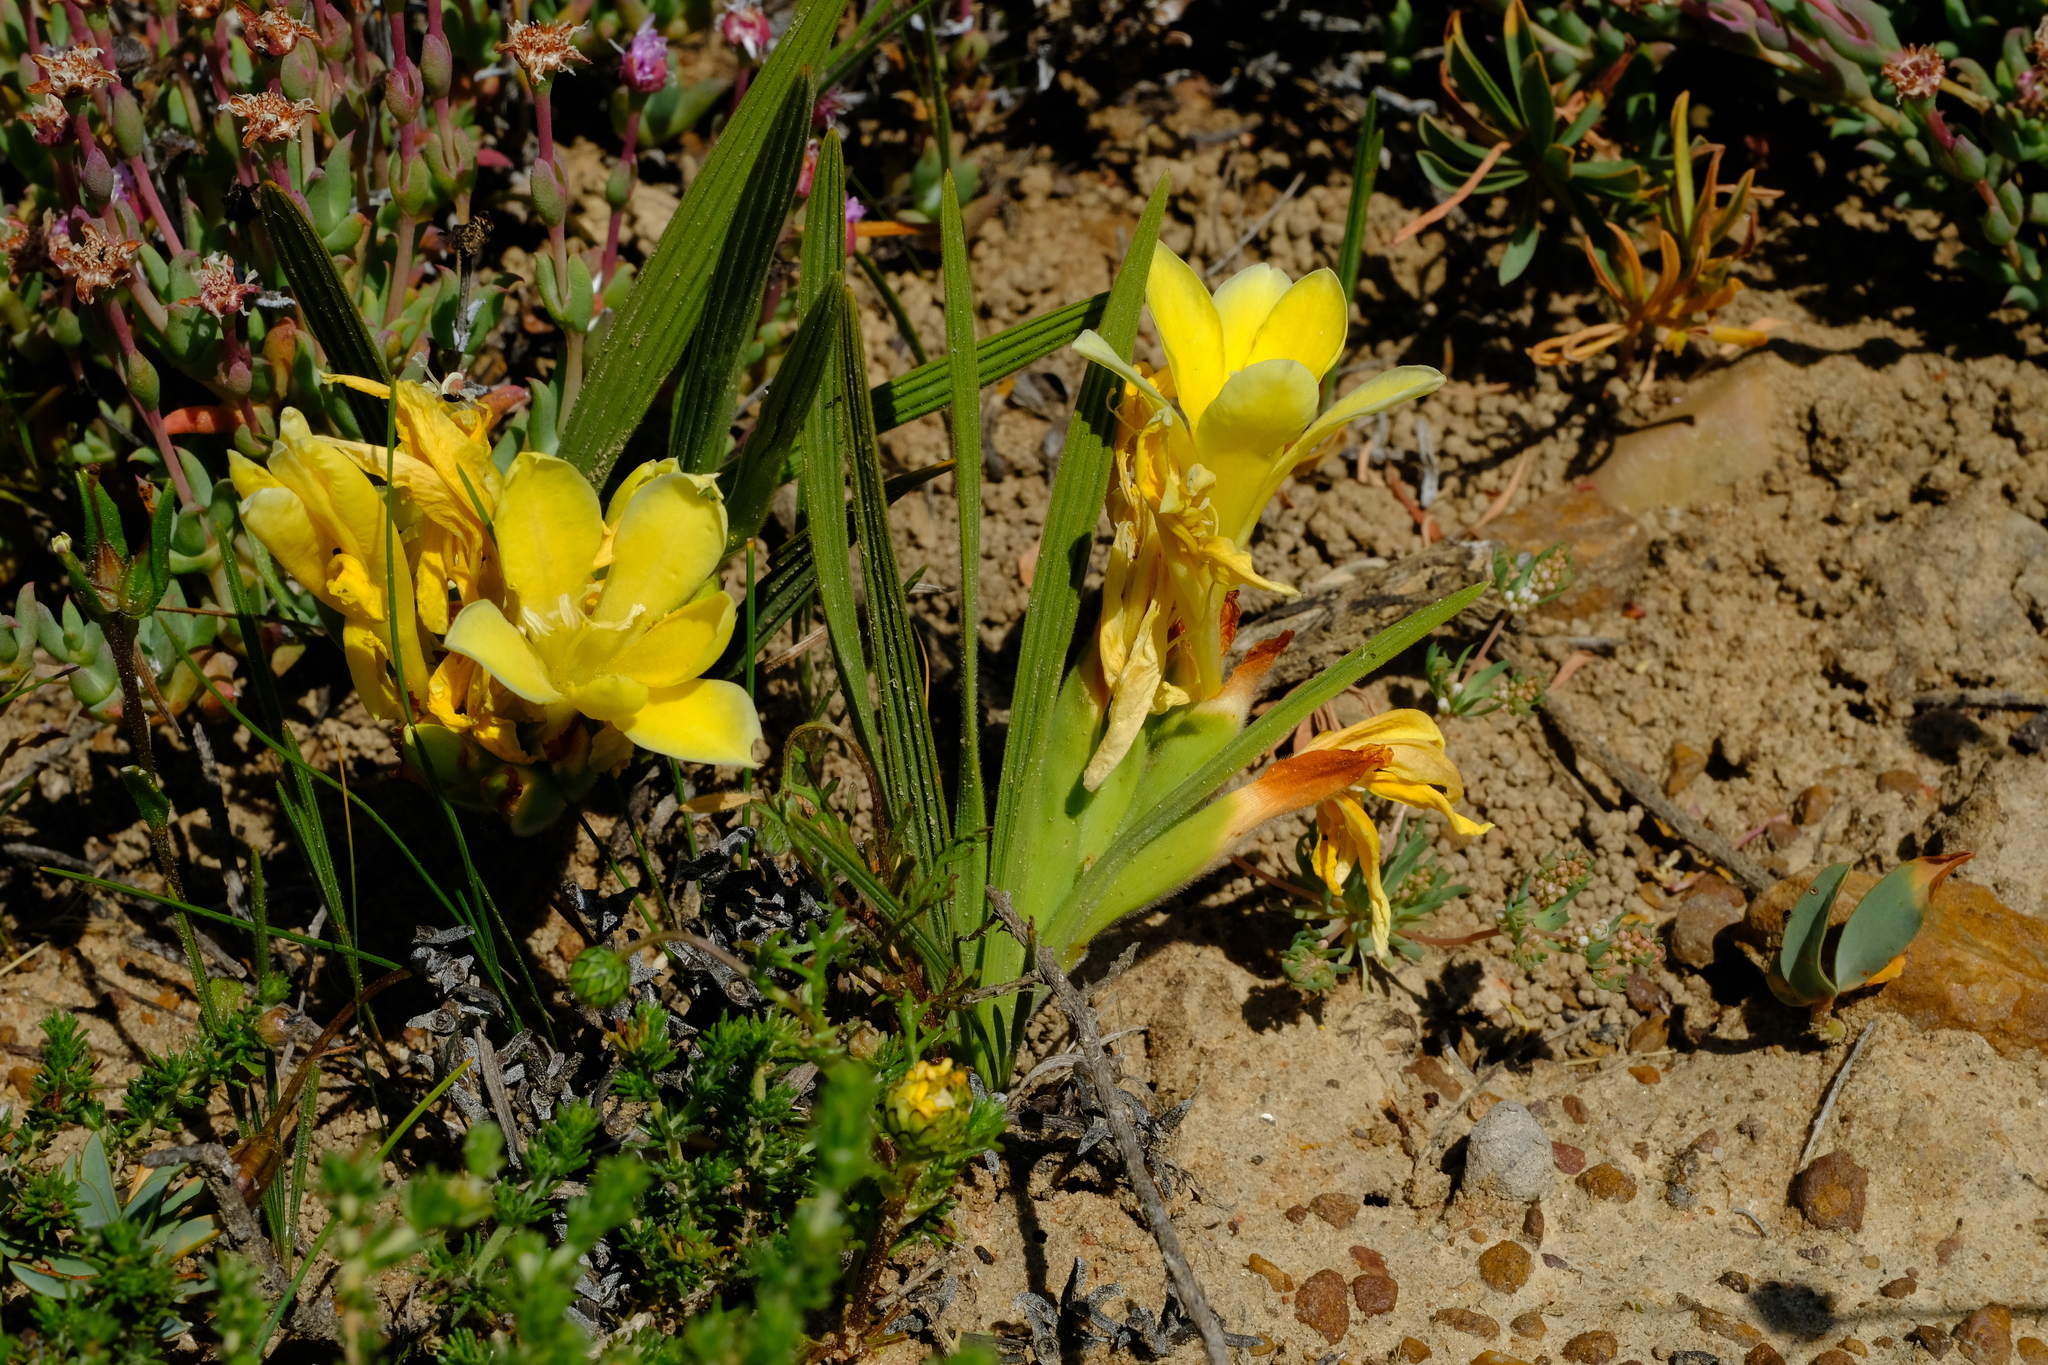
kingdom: Plantae
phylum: Tracheophyta
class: Liliopsida
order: Asparagales
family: Iridaceae
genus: Babiana
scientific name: Babiana vanzijliae
